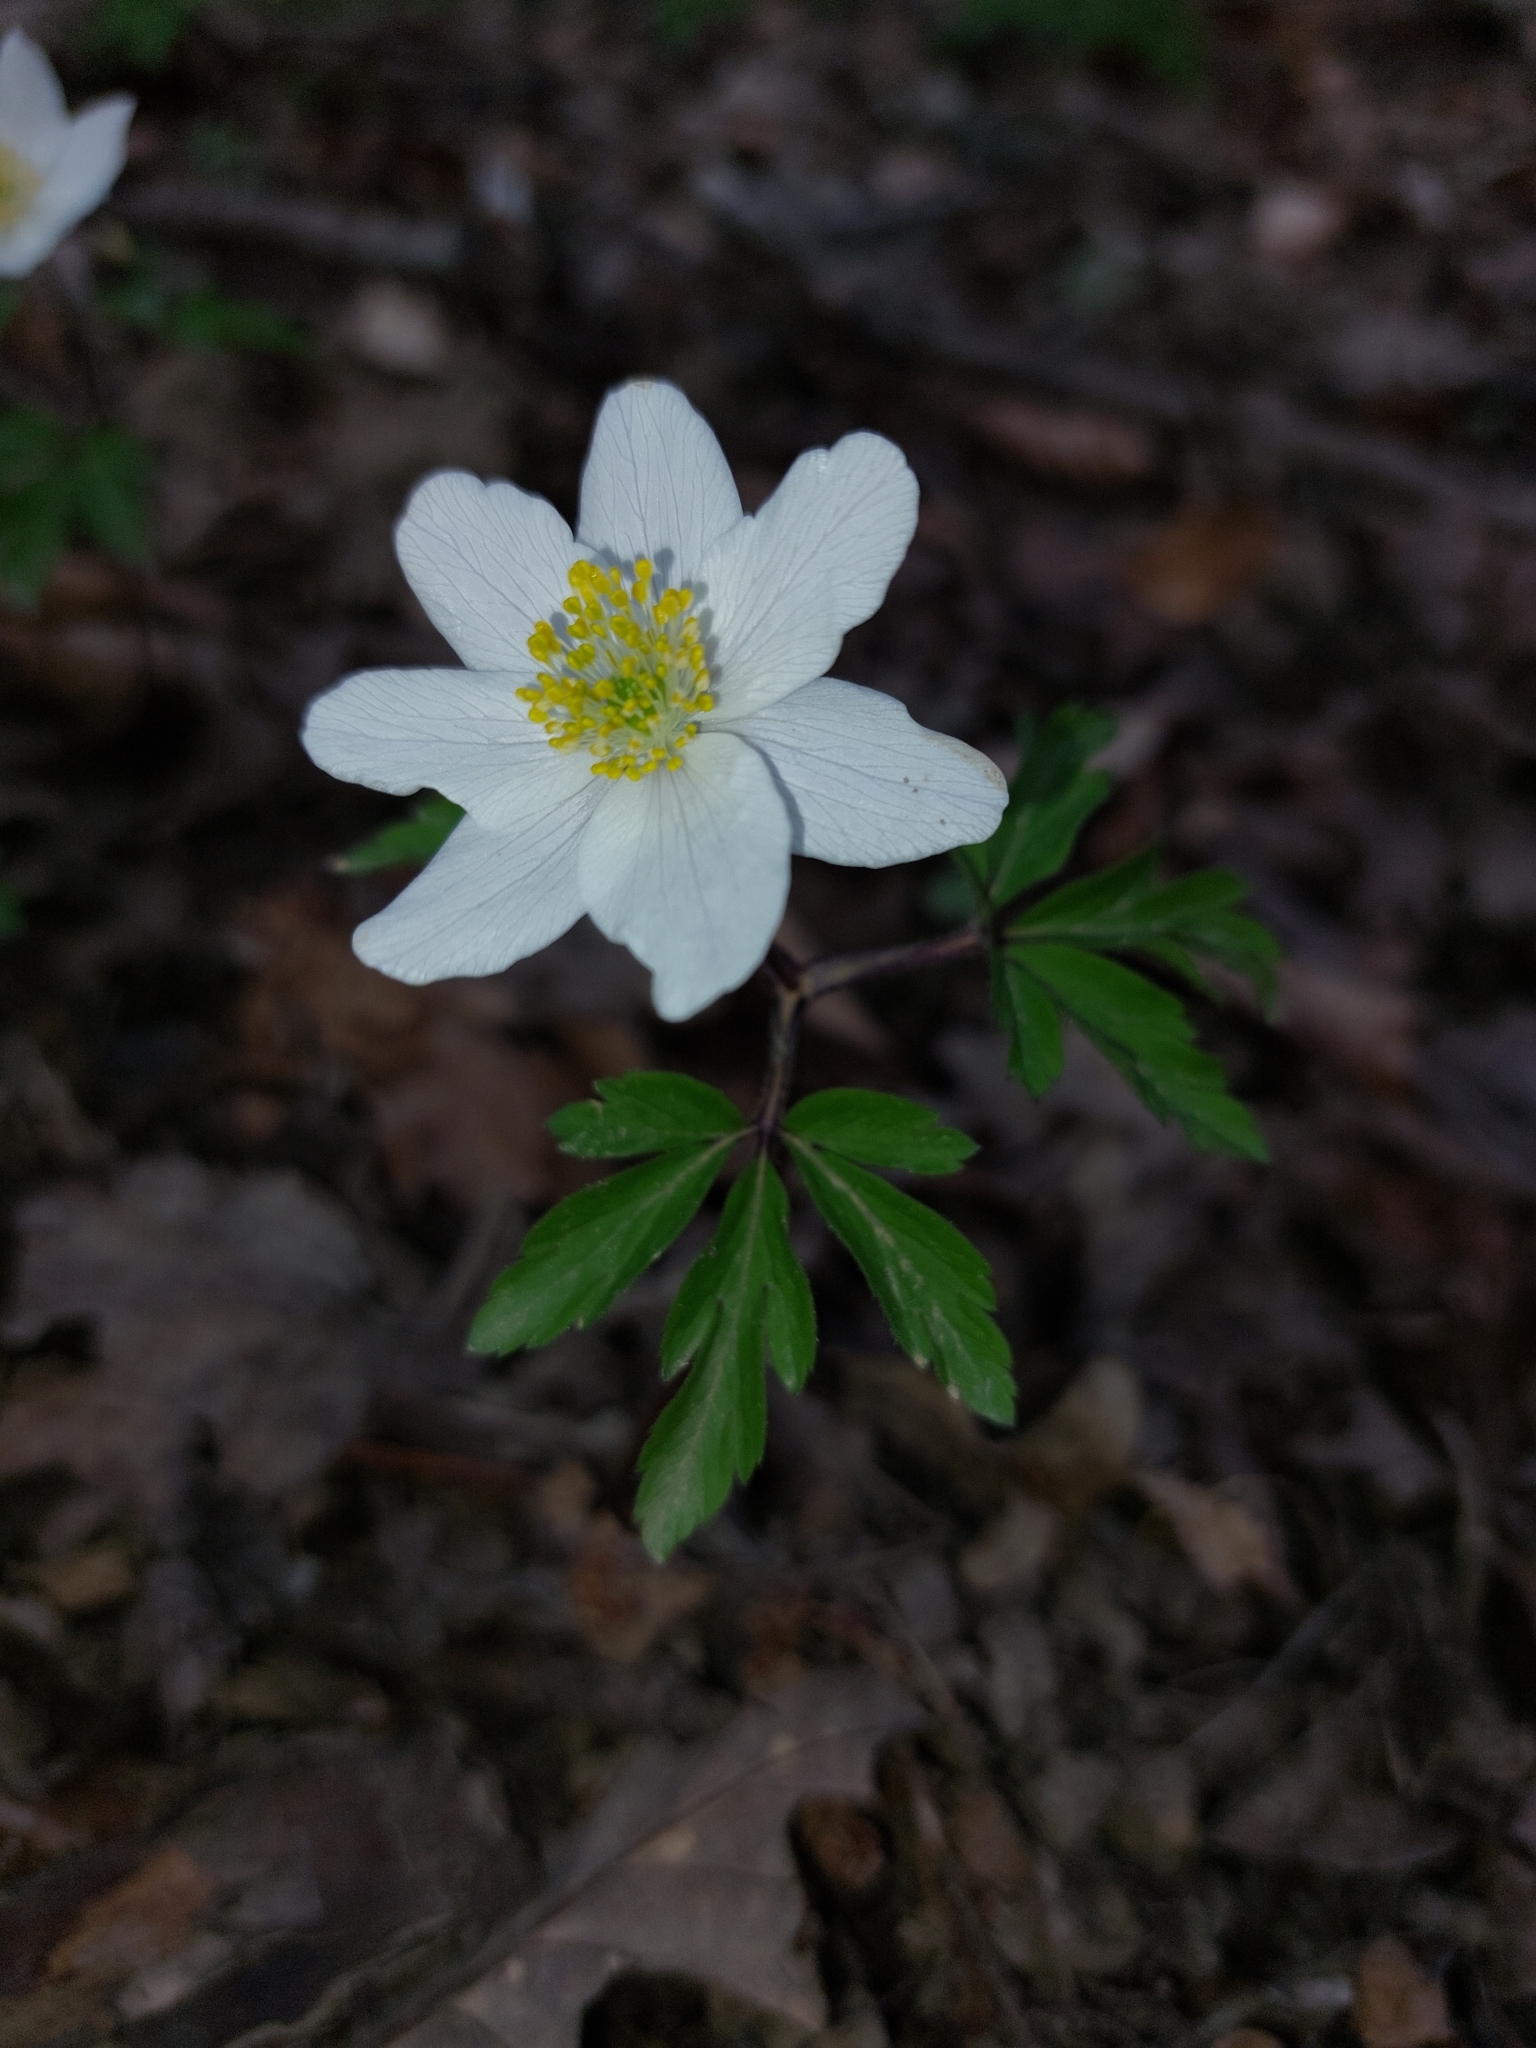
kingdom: Plantae
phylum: Tracheophyta
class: Magnoliopsida
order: Ranunculales
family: Ranunculaceae
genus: Anemone
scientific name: Anemone nemorosa
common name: Wood anemone
